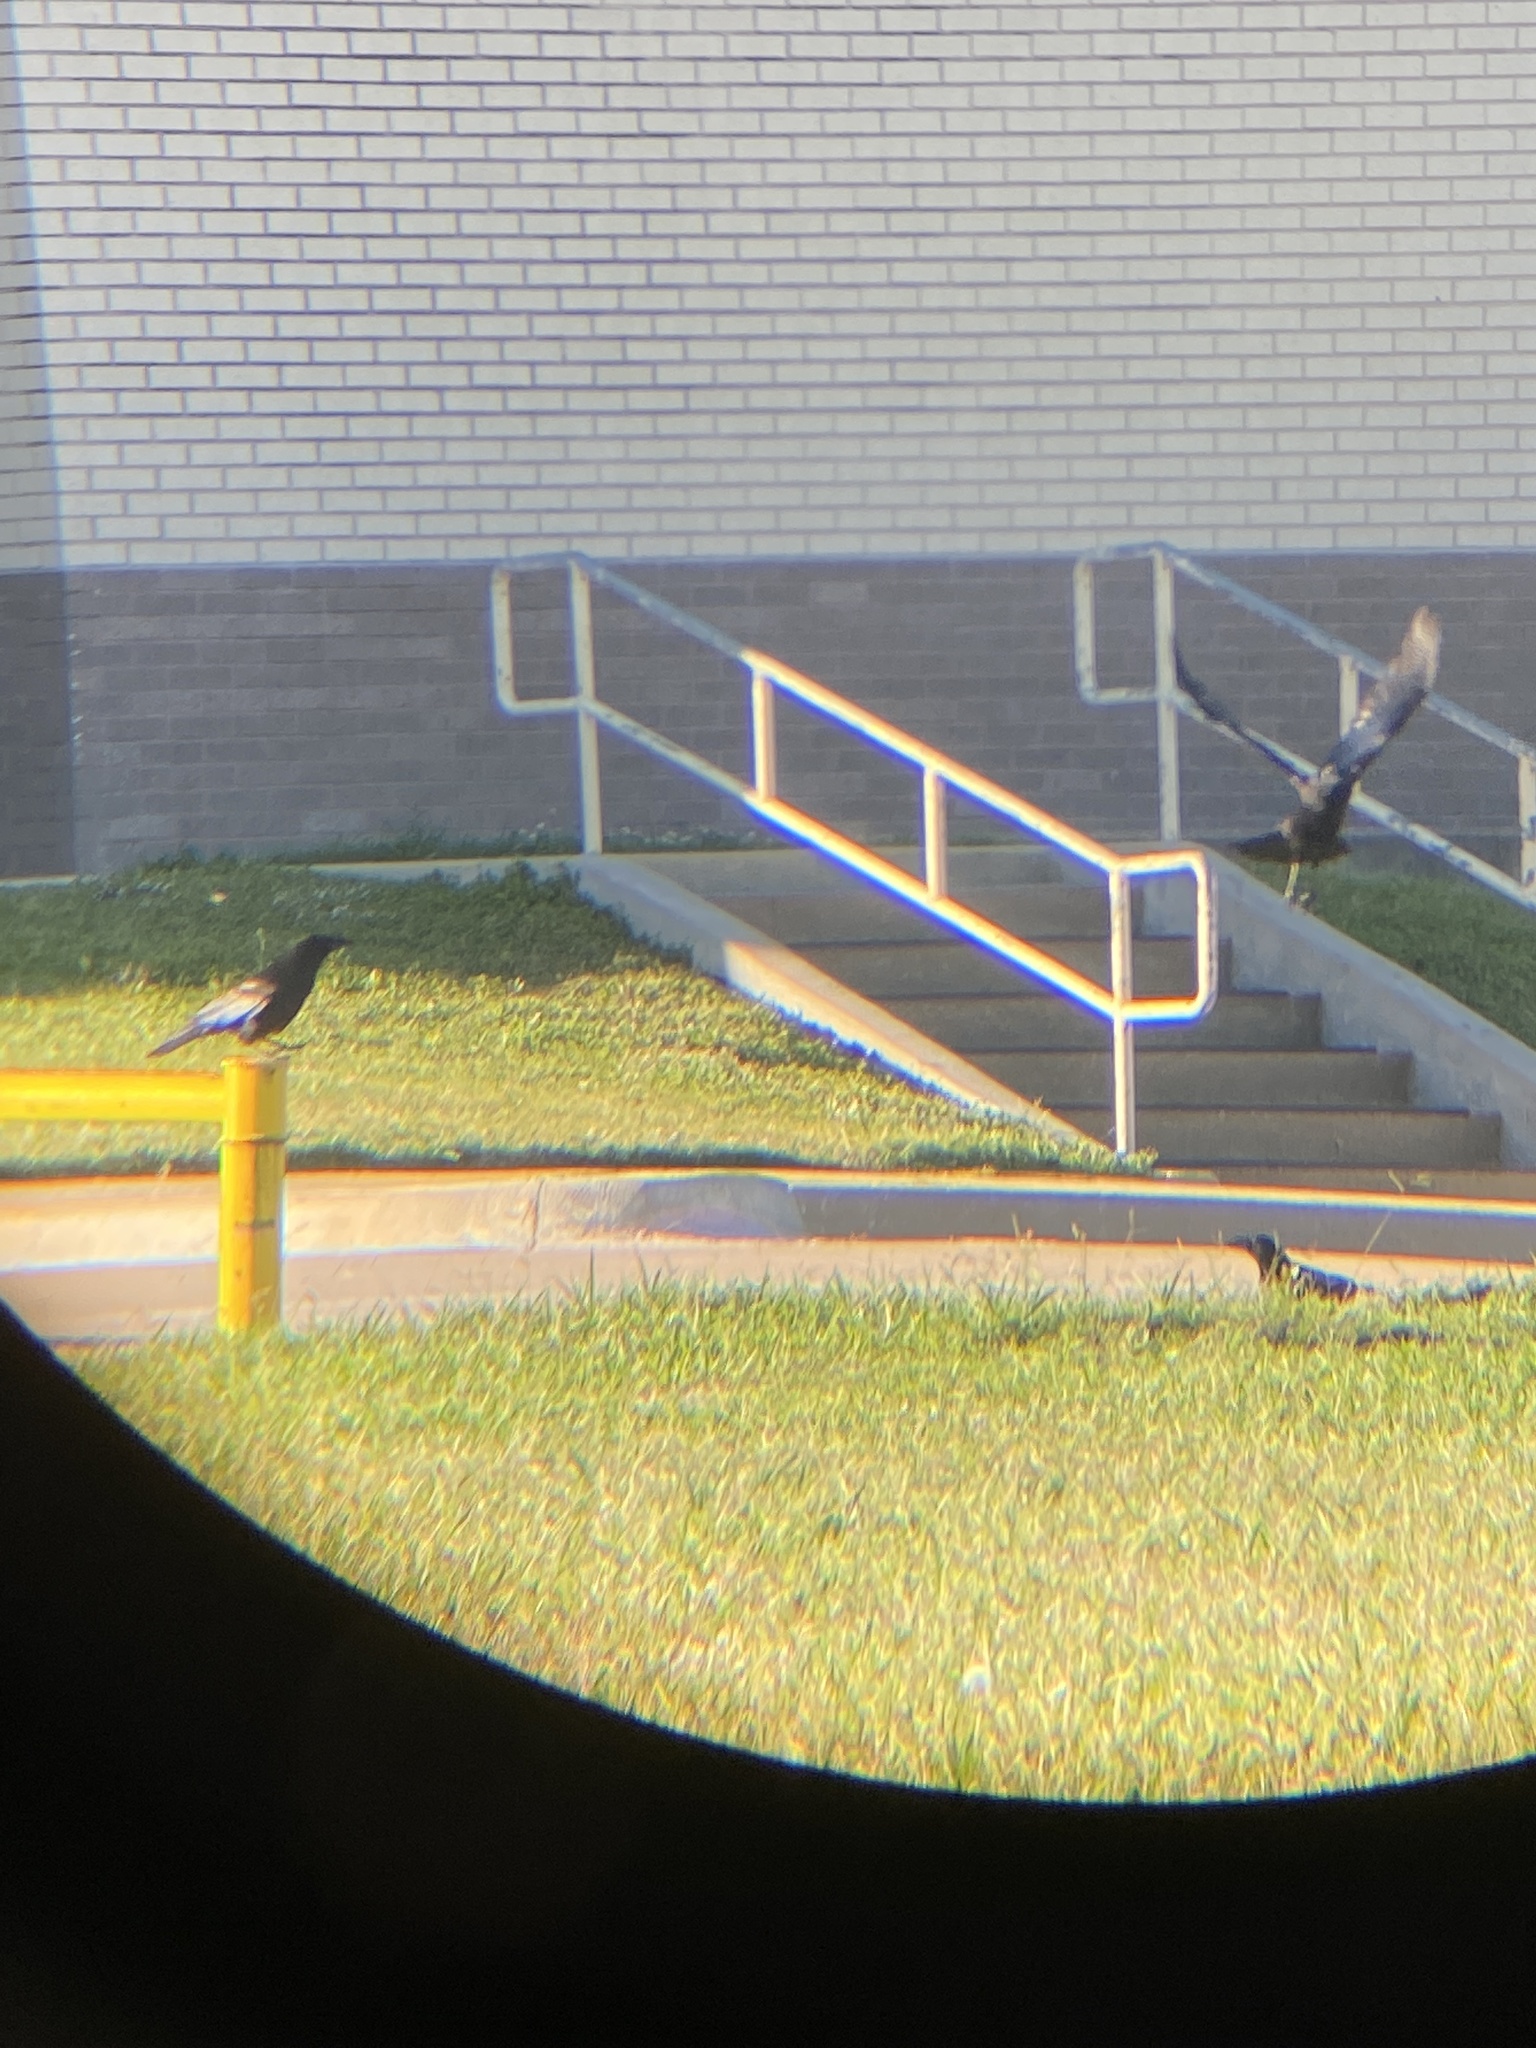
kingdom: Animalia
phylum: Chordata
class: Aves
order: Passeriformes
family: Corvidae
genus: Corvus
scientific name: Corvus brachyrhynchos
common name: American crow
